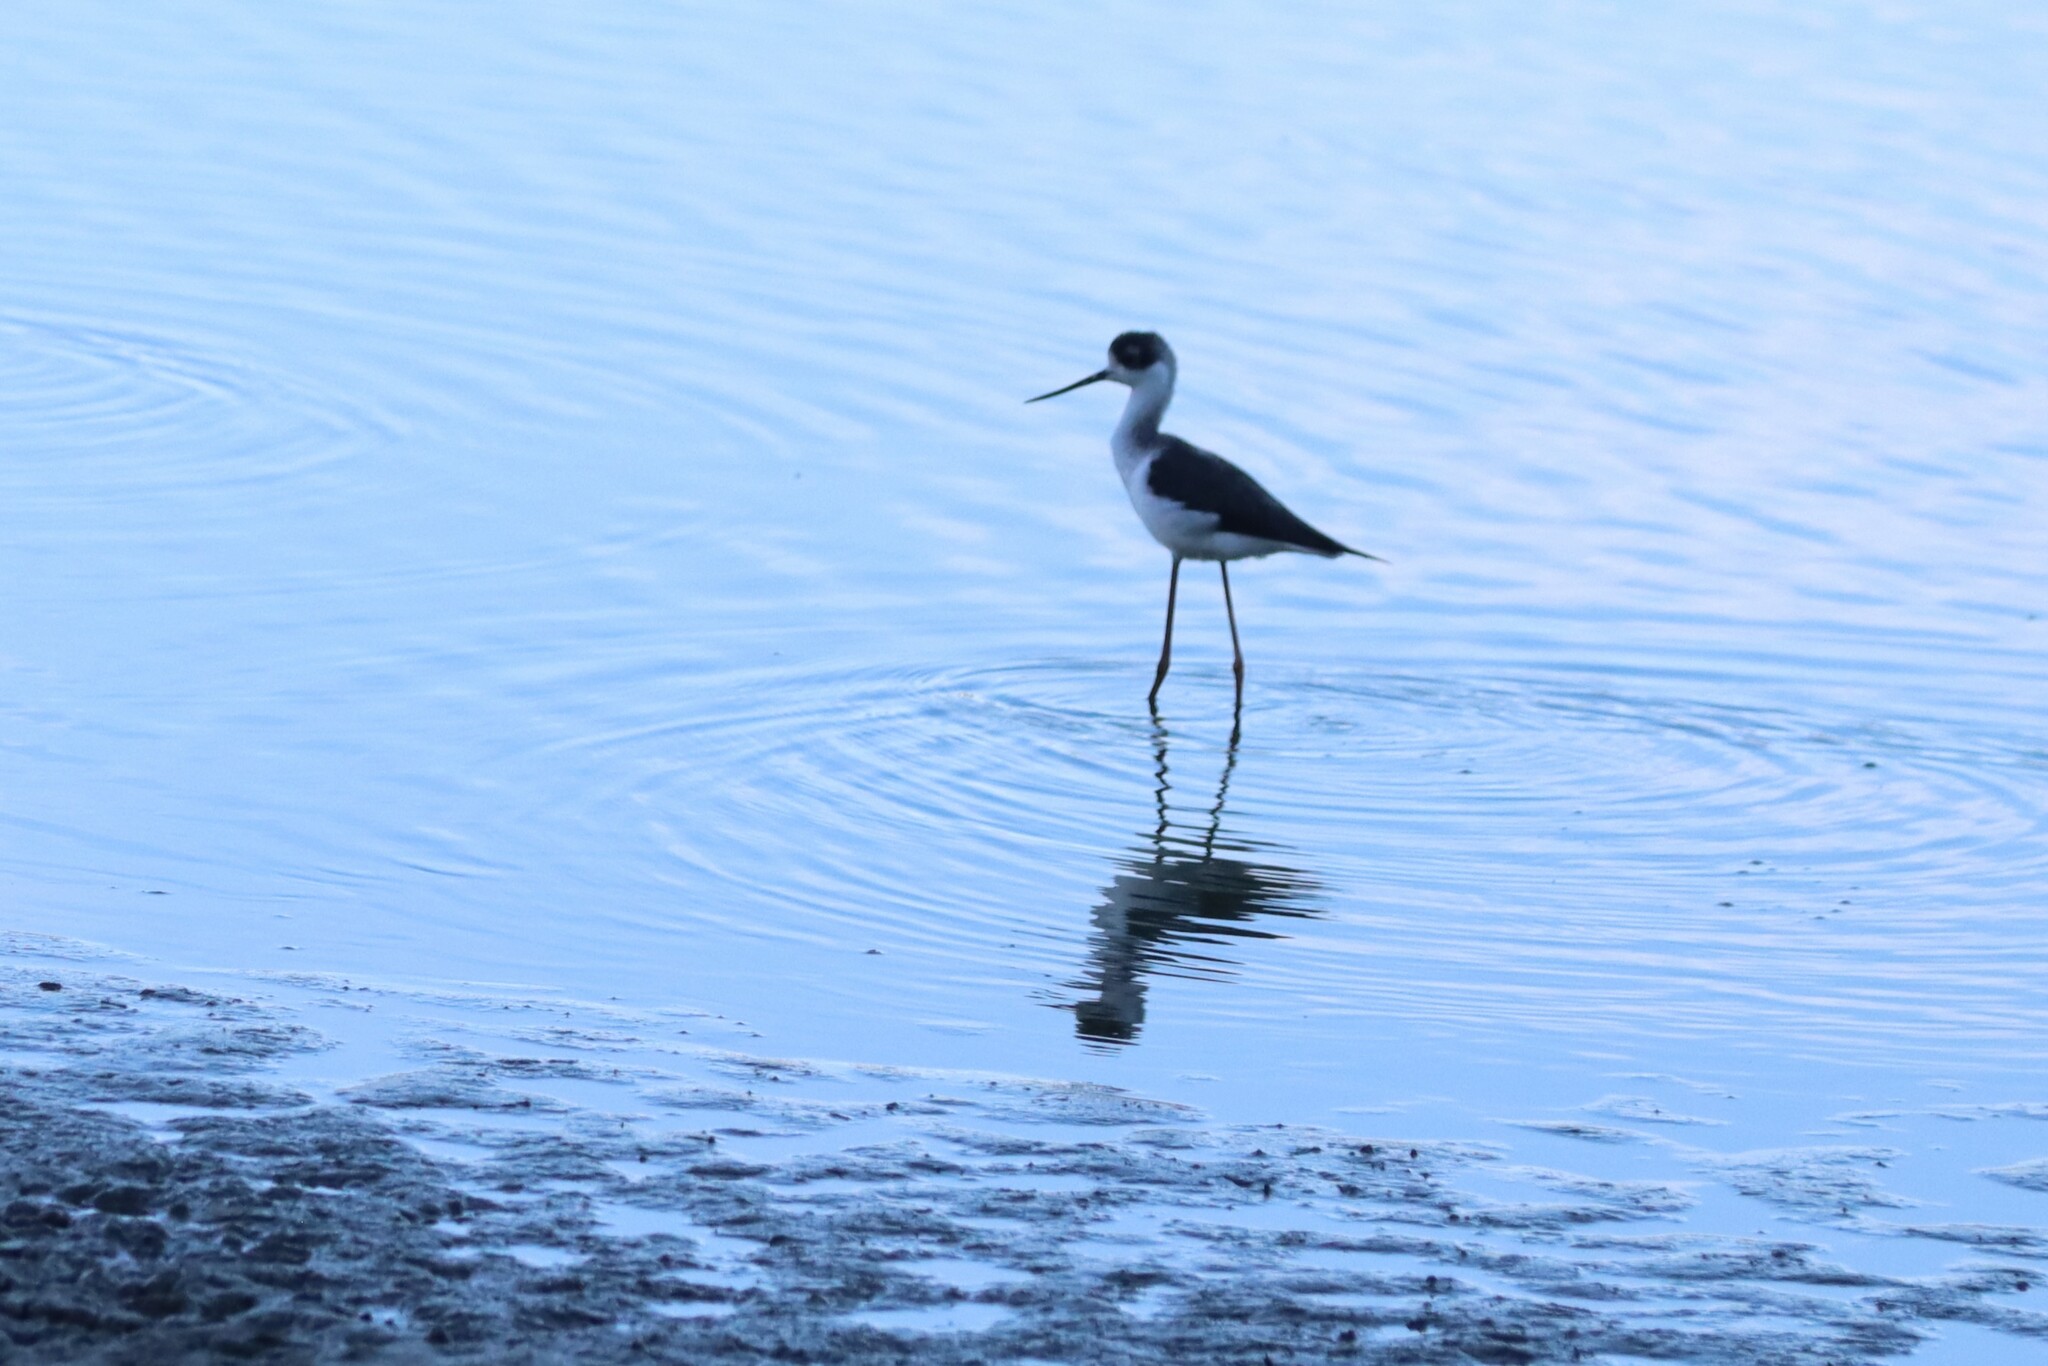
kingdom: Animalia
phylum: Chordata
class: Aves
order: Charadriiformes
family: Recurvirostridae
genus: Himantopus
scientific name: Himantopus mexicanus
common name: Black-necked stilt
